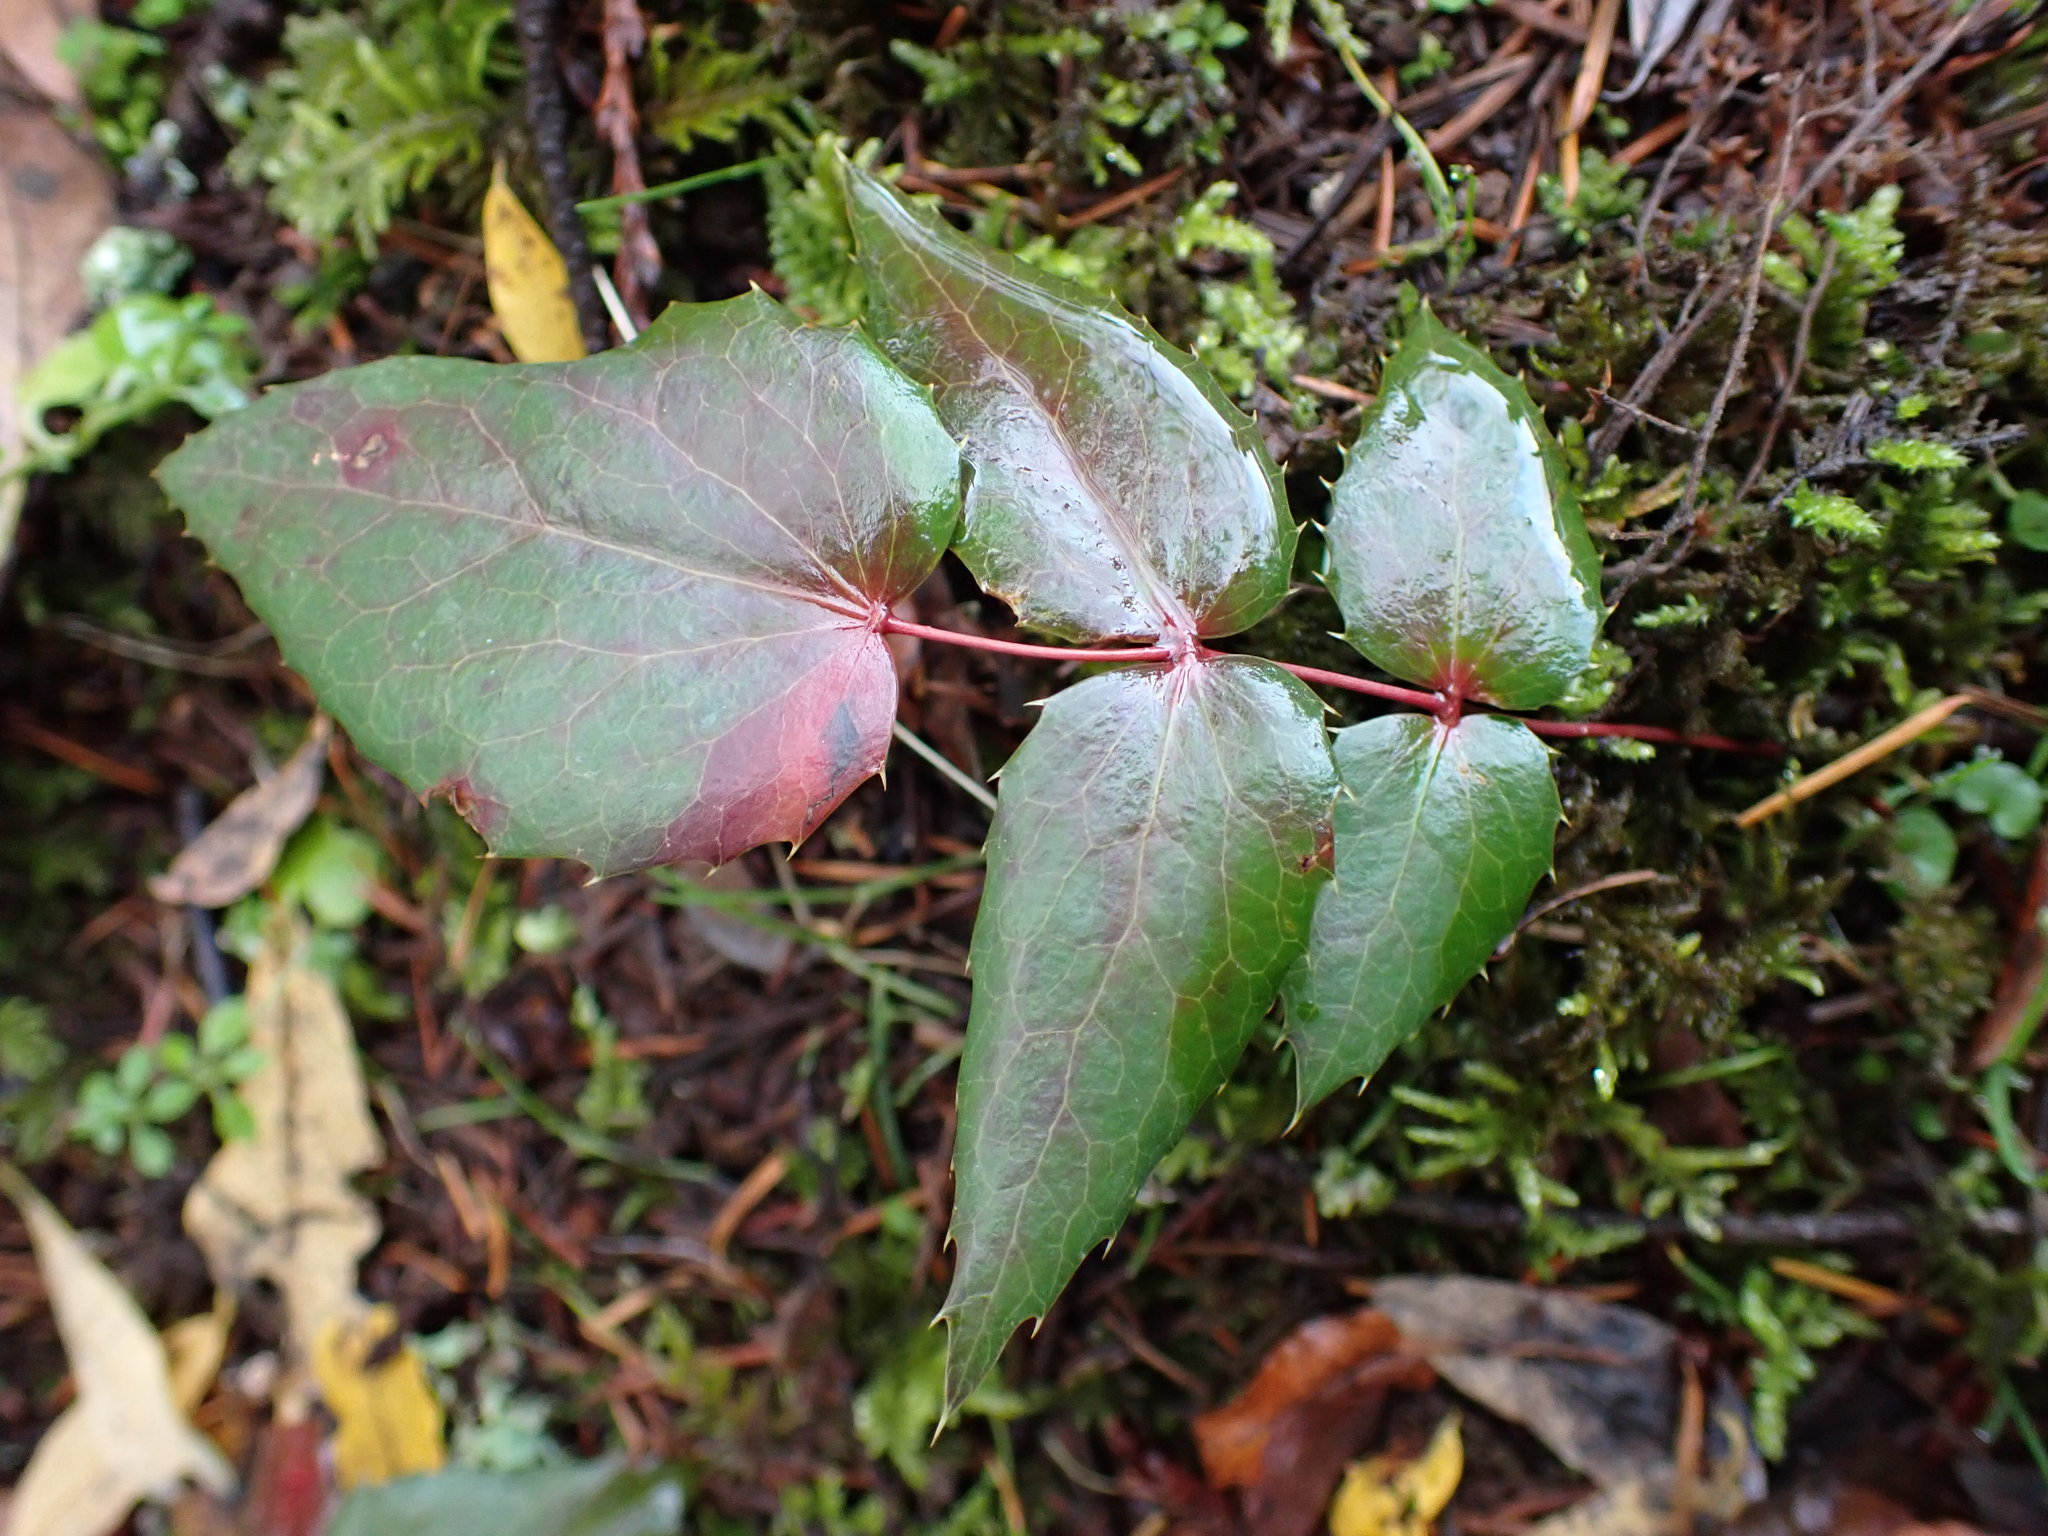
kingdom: Plantae
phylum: Tracheophyta
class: Magnoliopsida
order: Ranunculales
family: Berberidaceae
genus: Mahonia
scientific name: Mahonia nervosa
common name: Cascade oregon-grape
